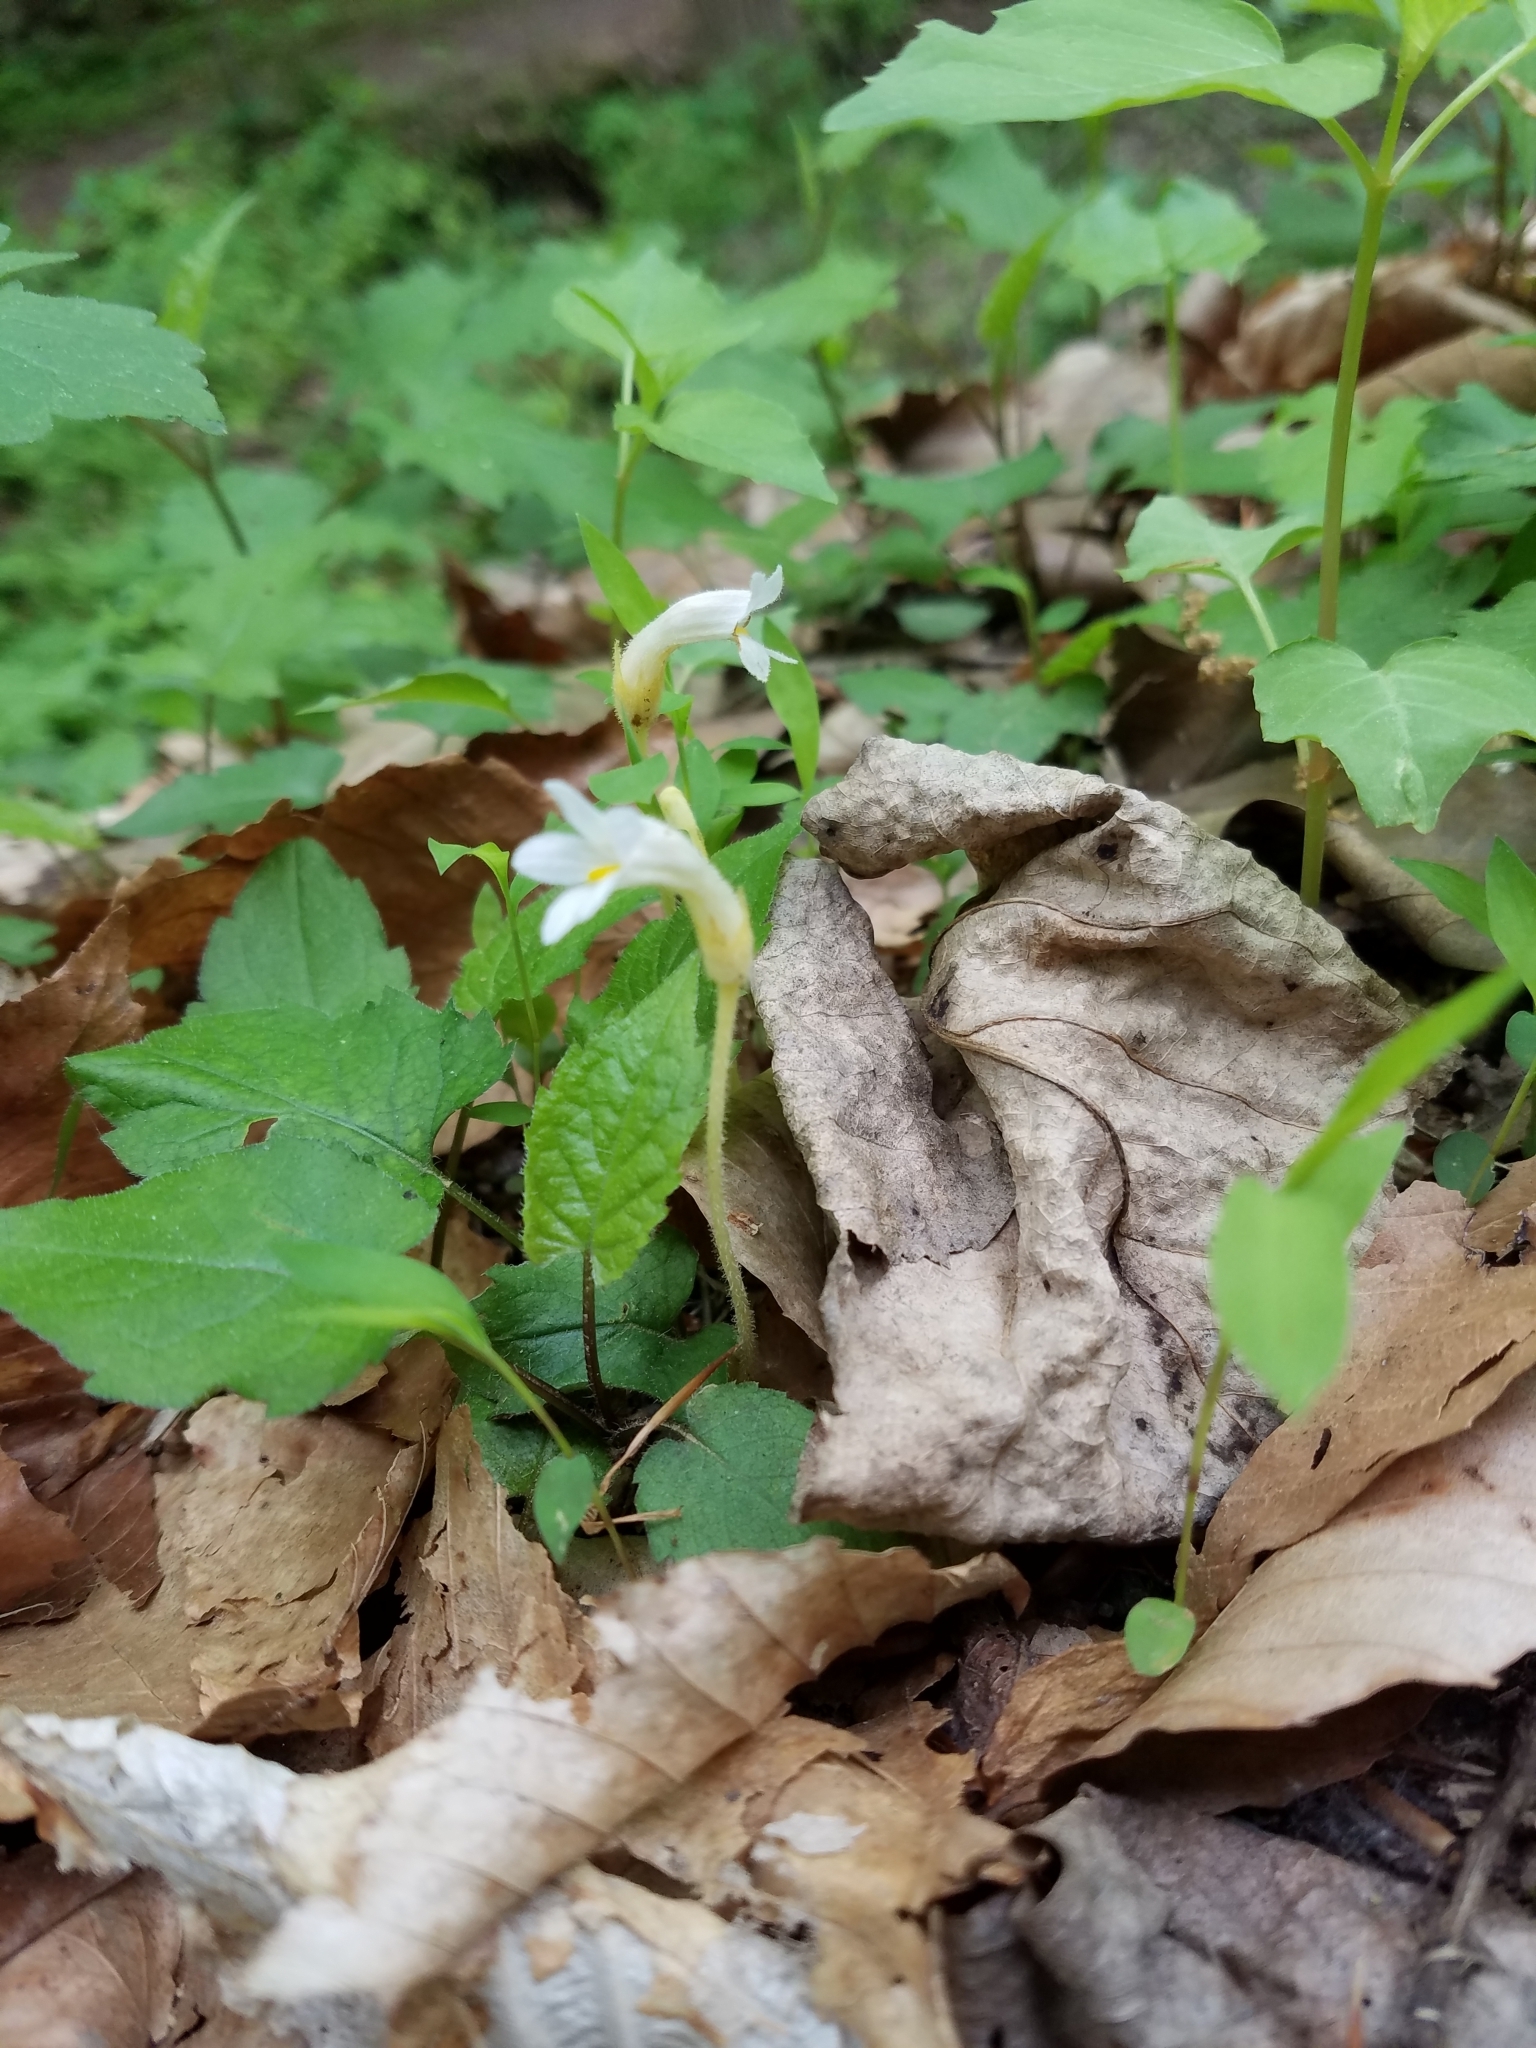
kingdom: Plantae
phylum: Tracheophyta
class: Magnoliopsida
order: Lamiales
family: Orobanchaceae
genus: Aphyllon
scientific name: Aphyllon uniflorum
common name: One-flowered broomrape
